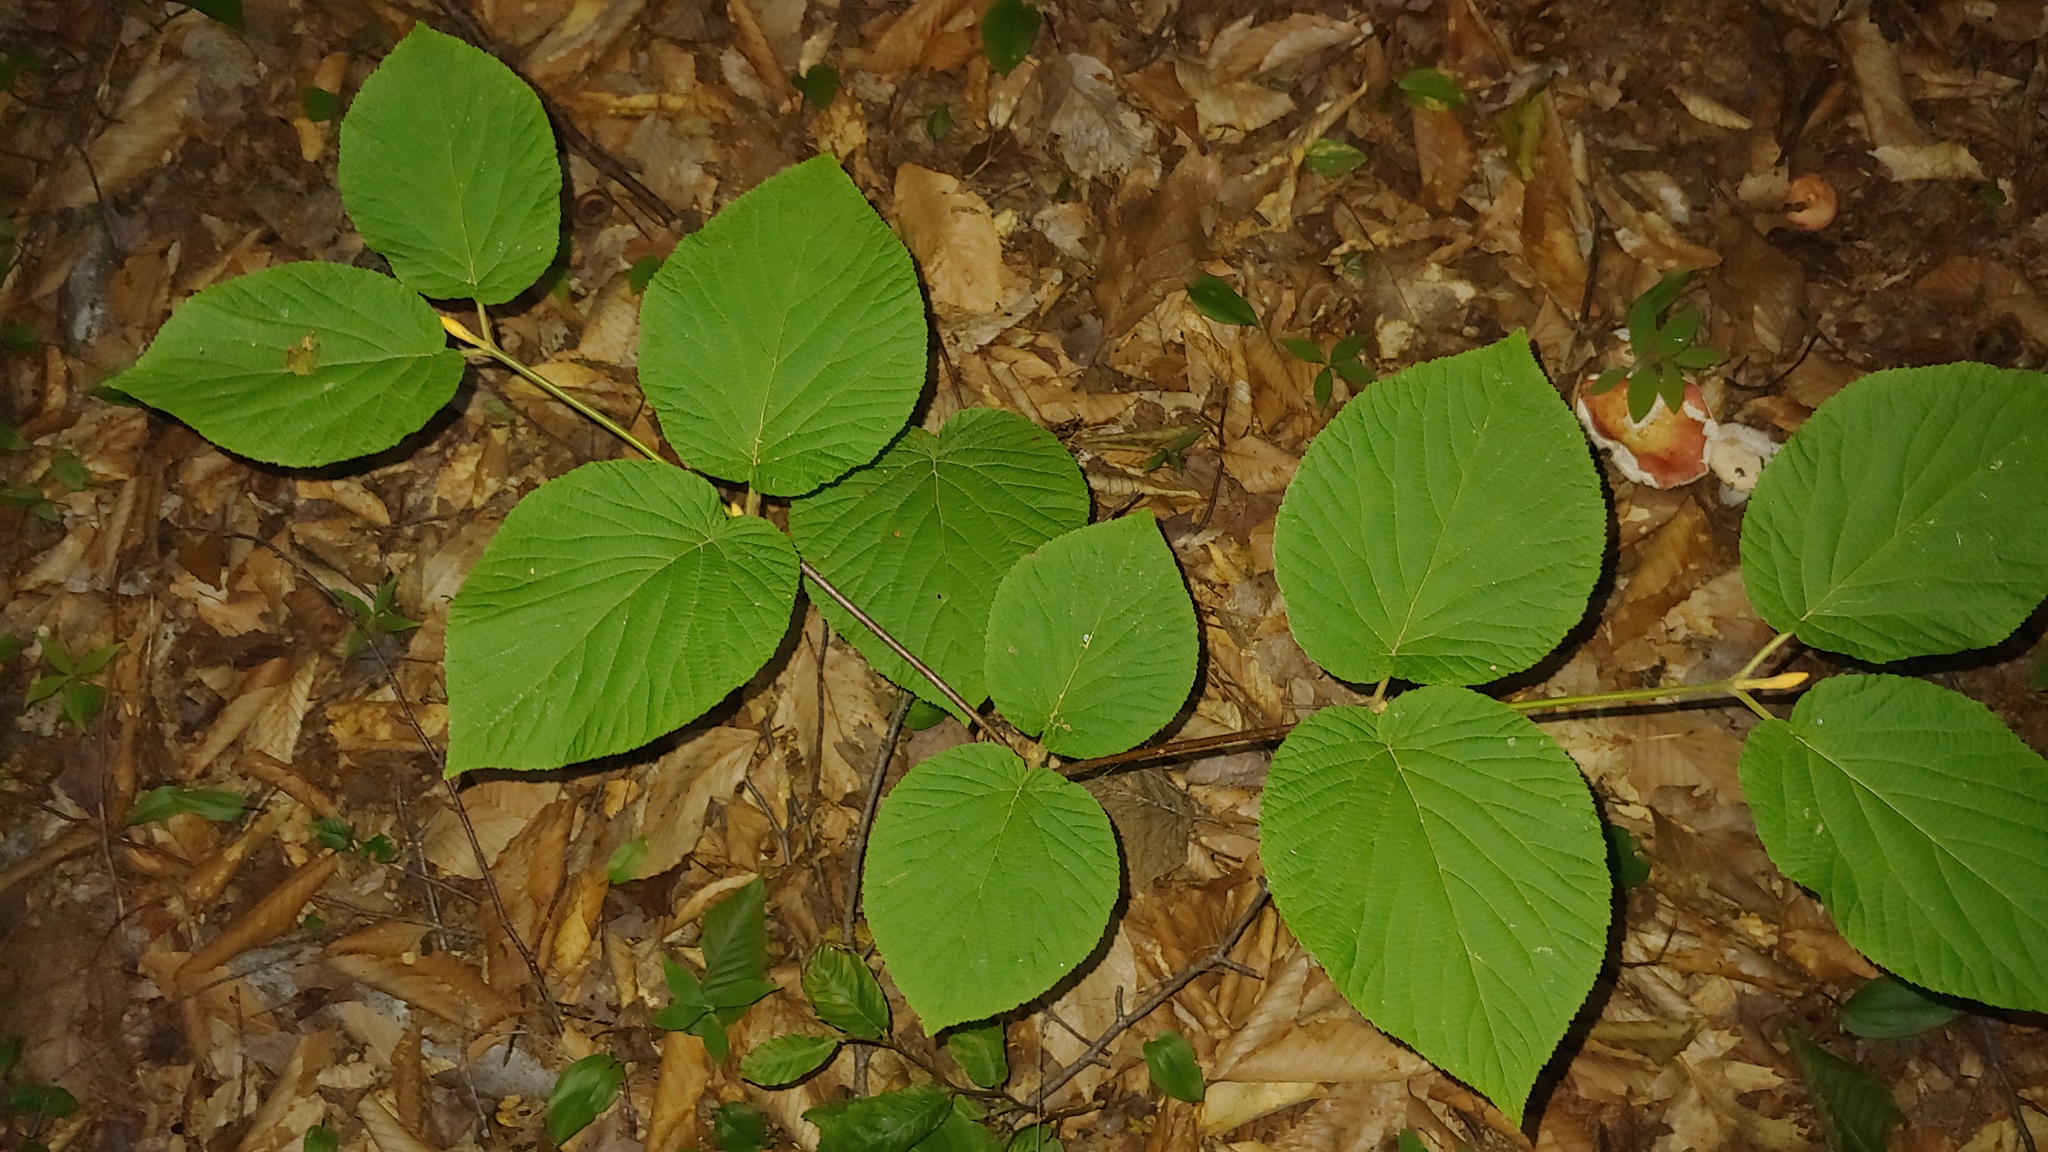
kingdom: Plantae
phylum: Tracheophyta
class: Magnoliopsida
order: Dipsacales
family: Viburnaceae
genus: Viburnum
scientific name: Viburnum lantanoides
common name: Hobblebush
